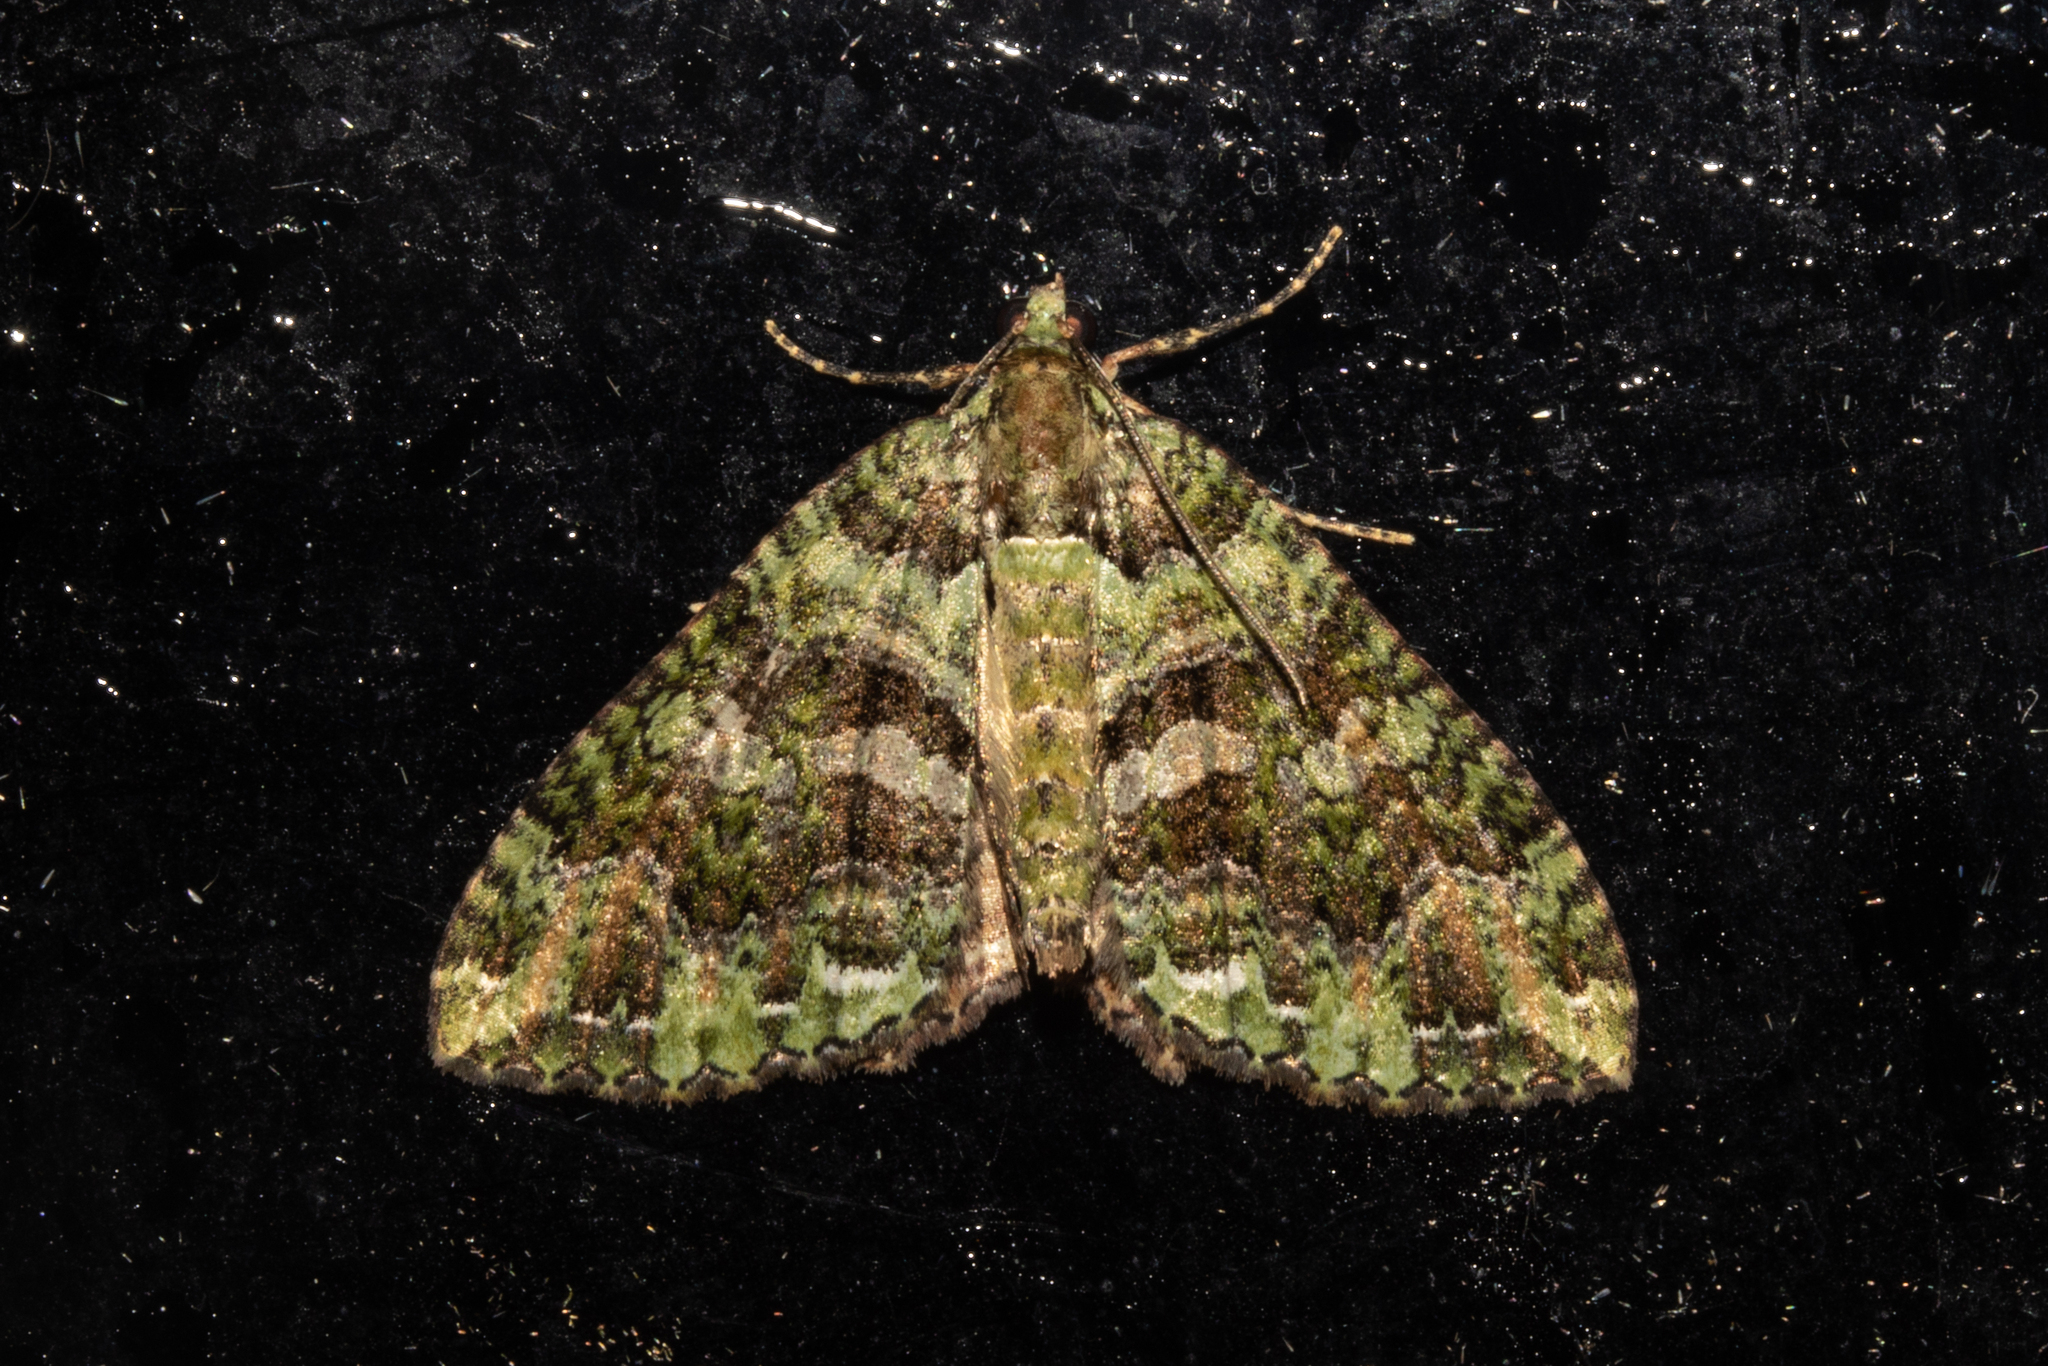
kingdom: Animalia
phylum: Arthropoda
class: Insecta
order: Lepidoptera
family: Geometridae
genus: Austrocidaria
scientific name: Austrocidaria similata
